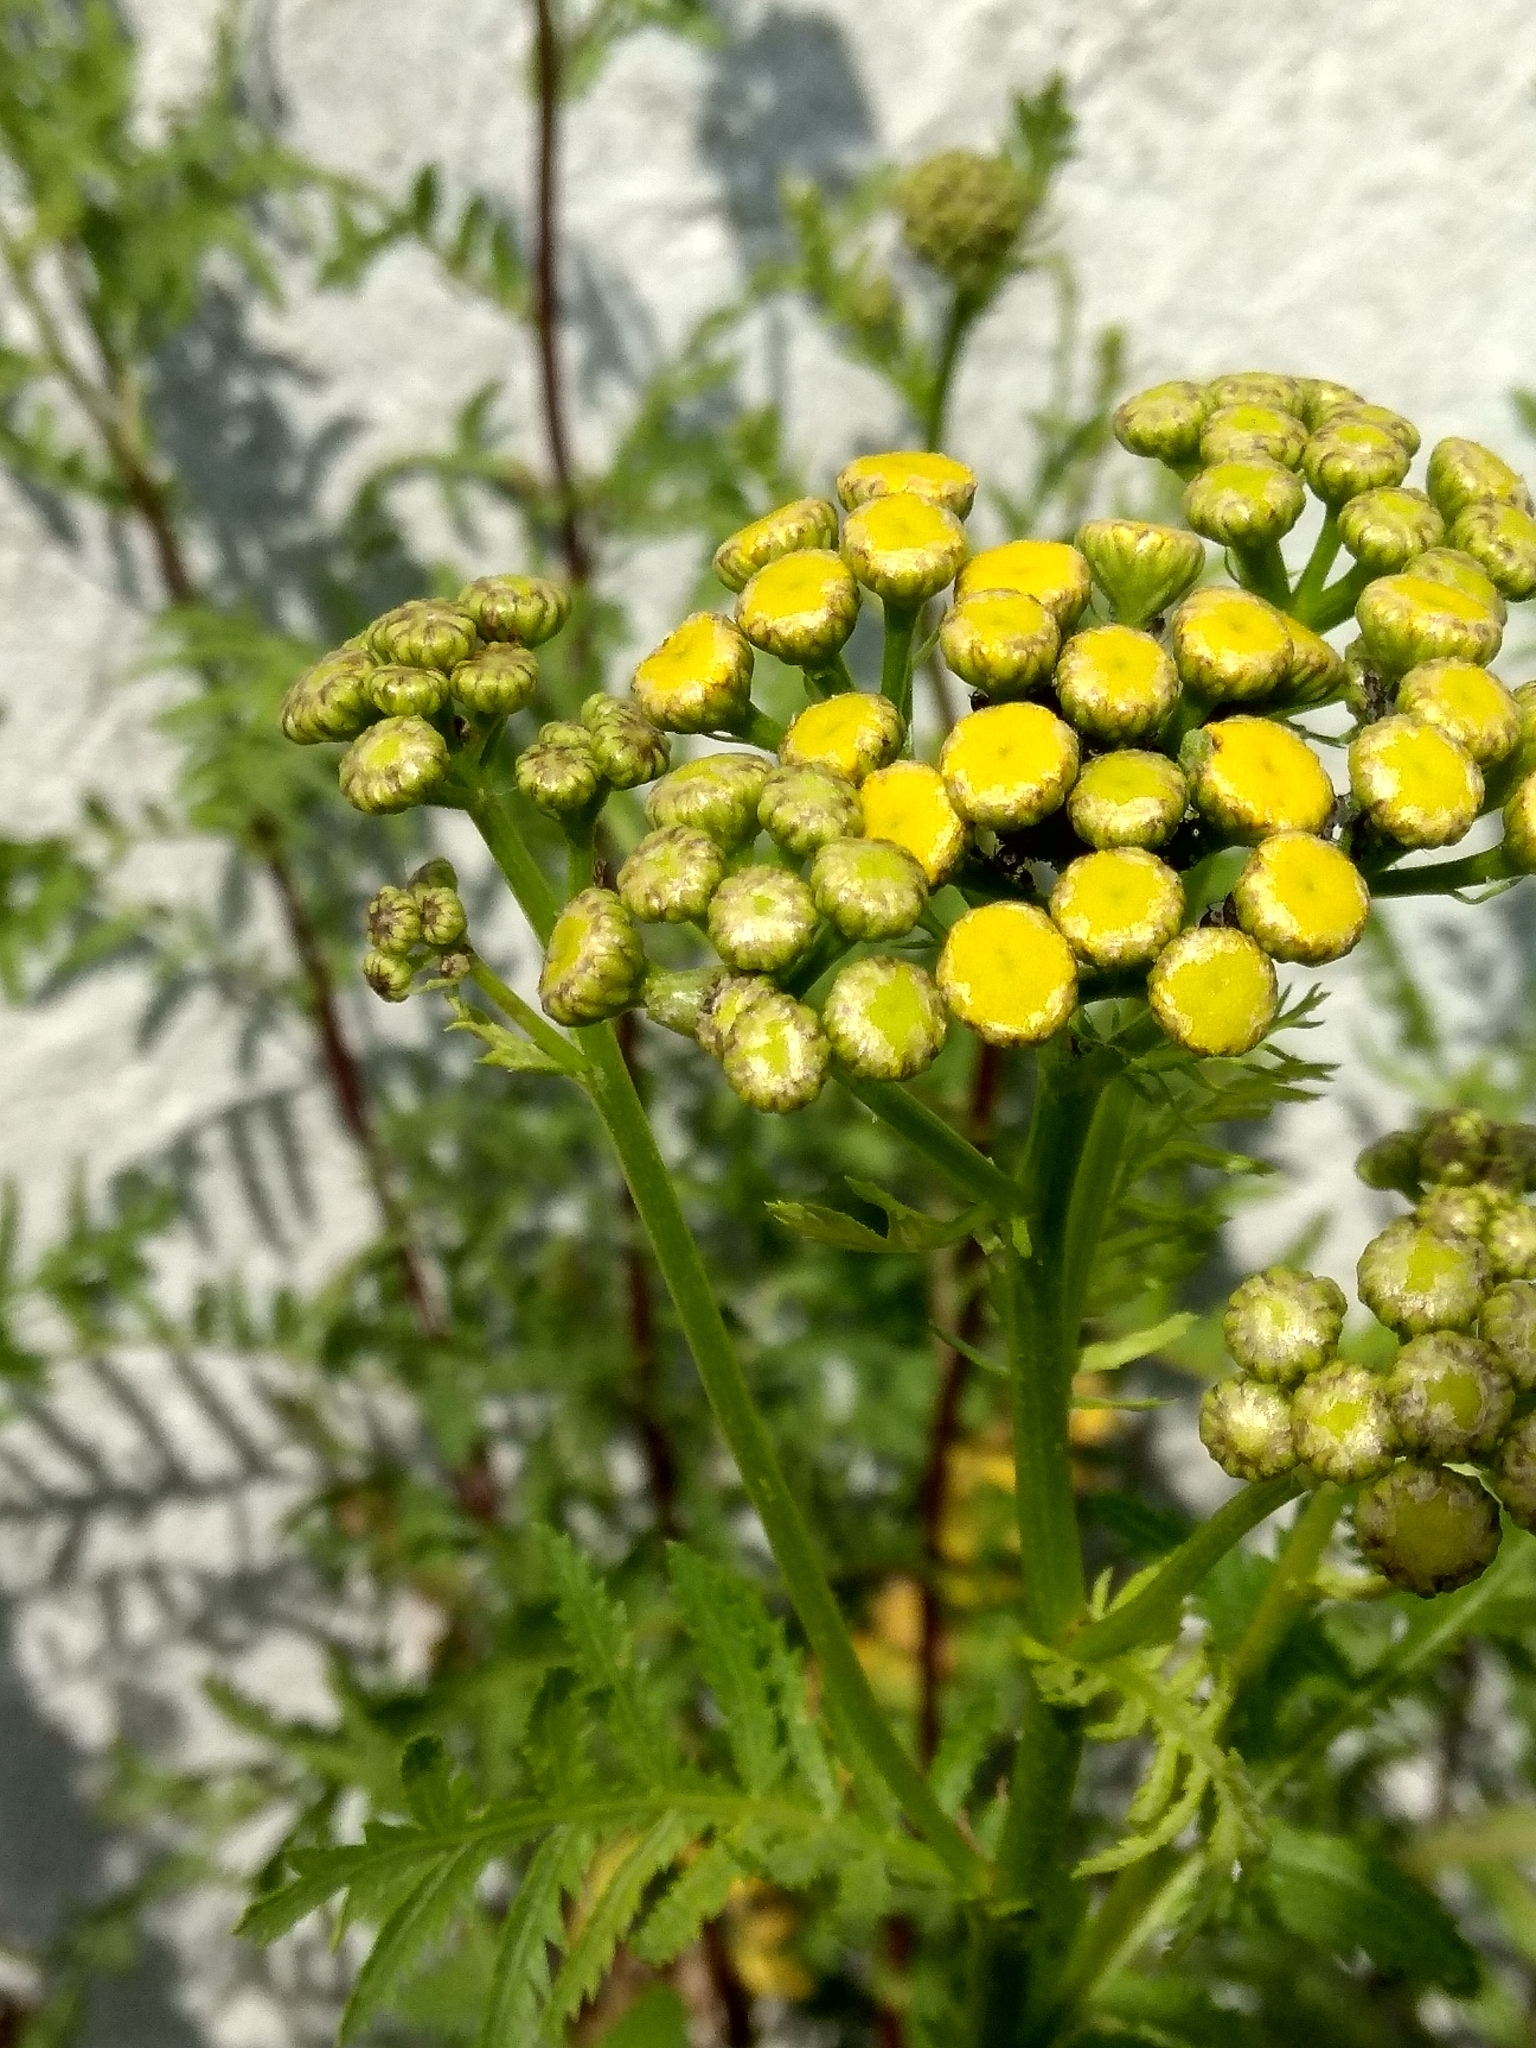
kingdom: Plantae
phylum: Tracheophyta
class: Magnoliopsida
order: Asterales
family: Asteraceae
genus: Tanacetum
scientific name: Tanacetum vulgare
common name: Common tansy
